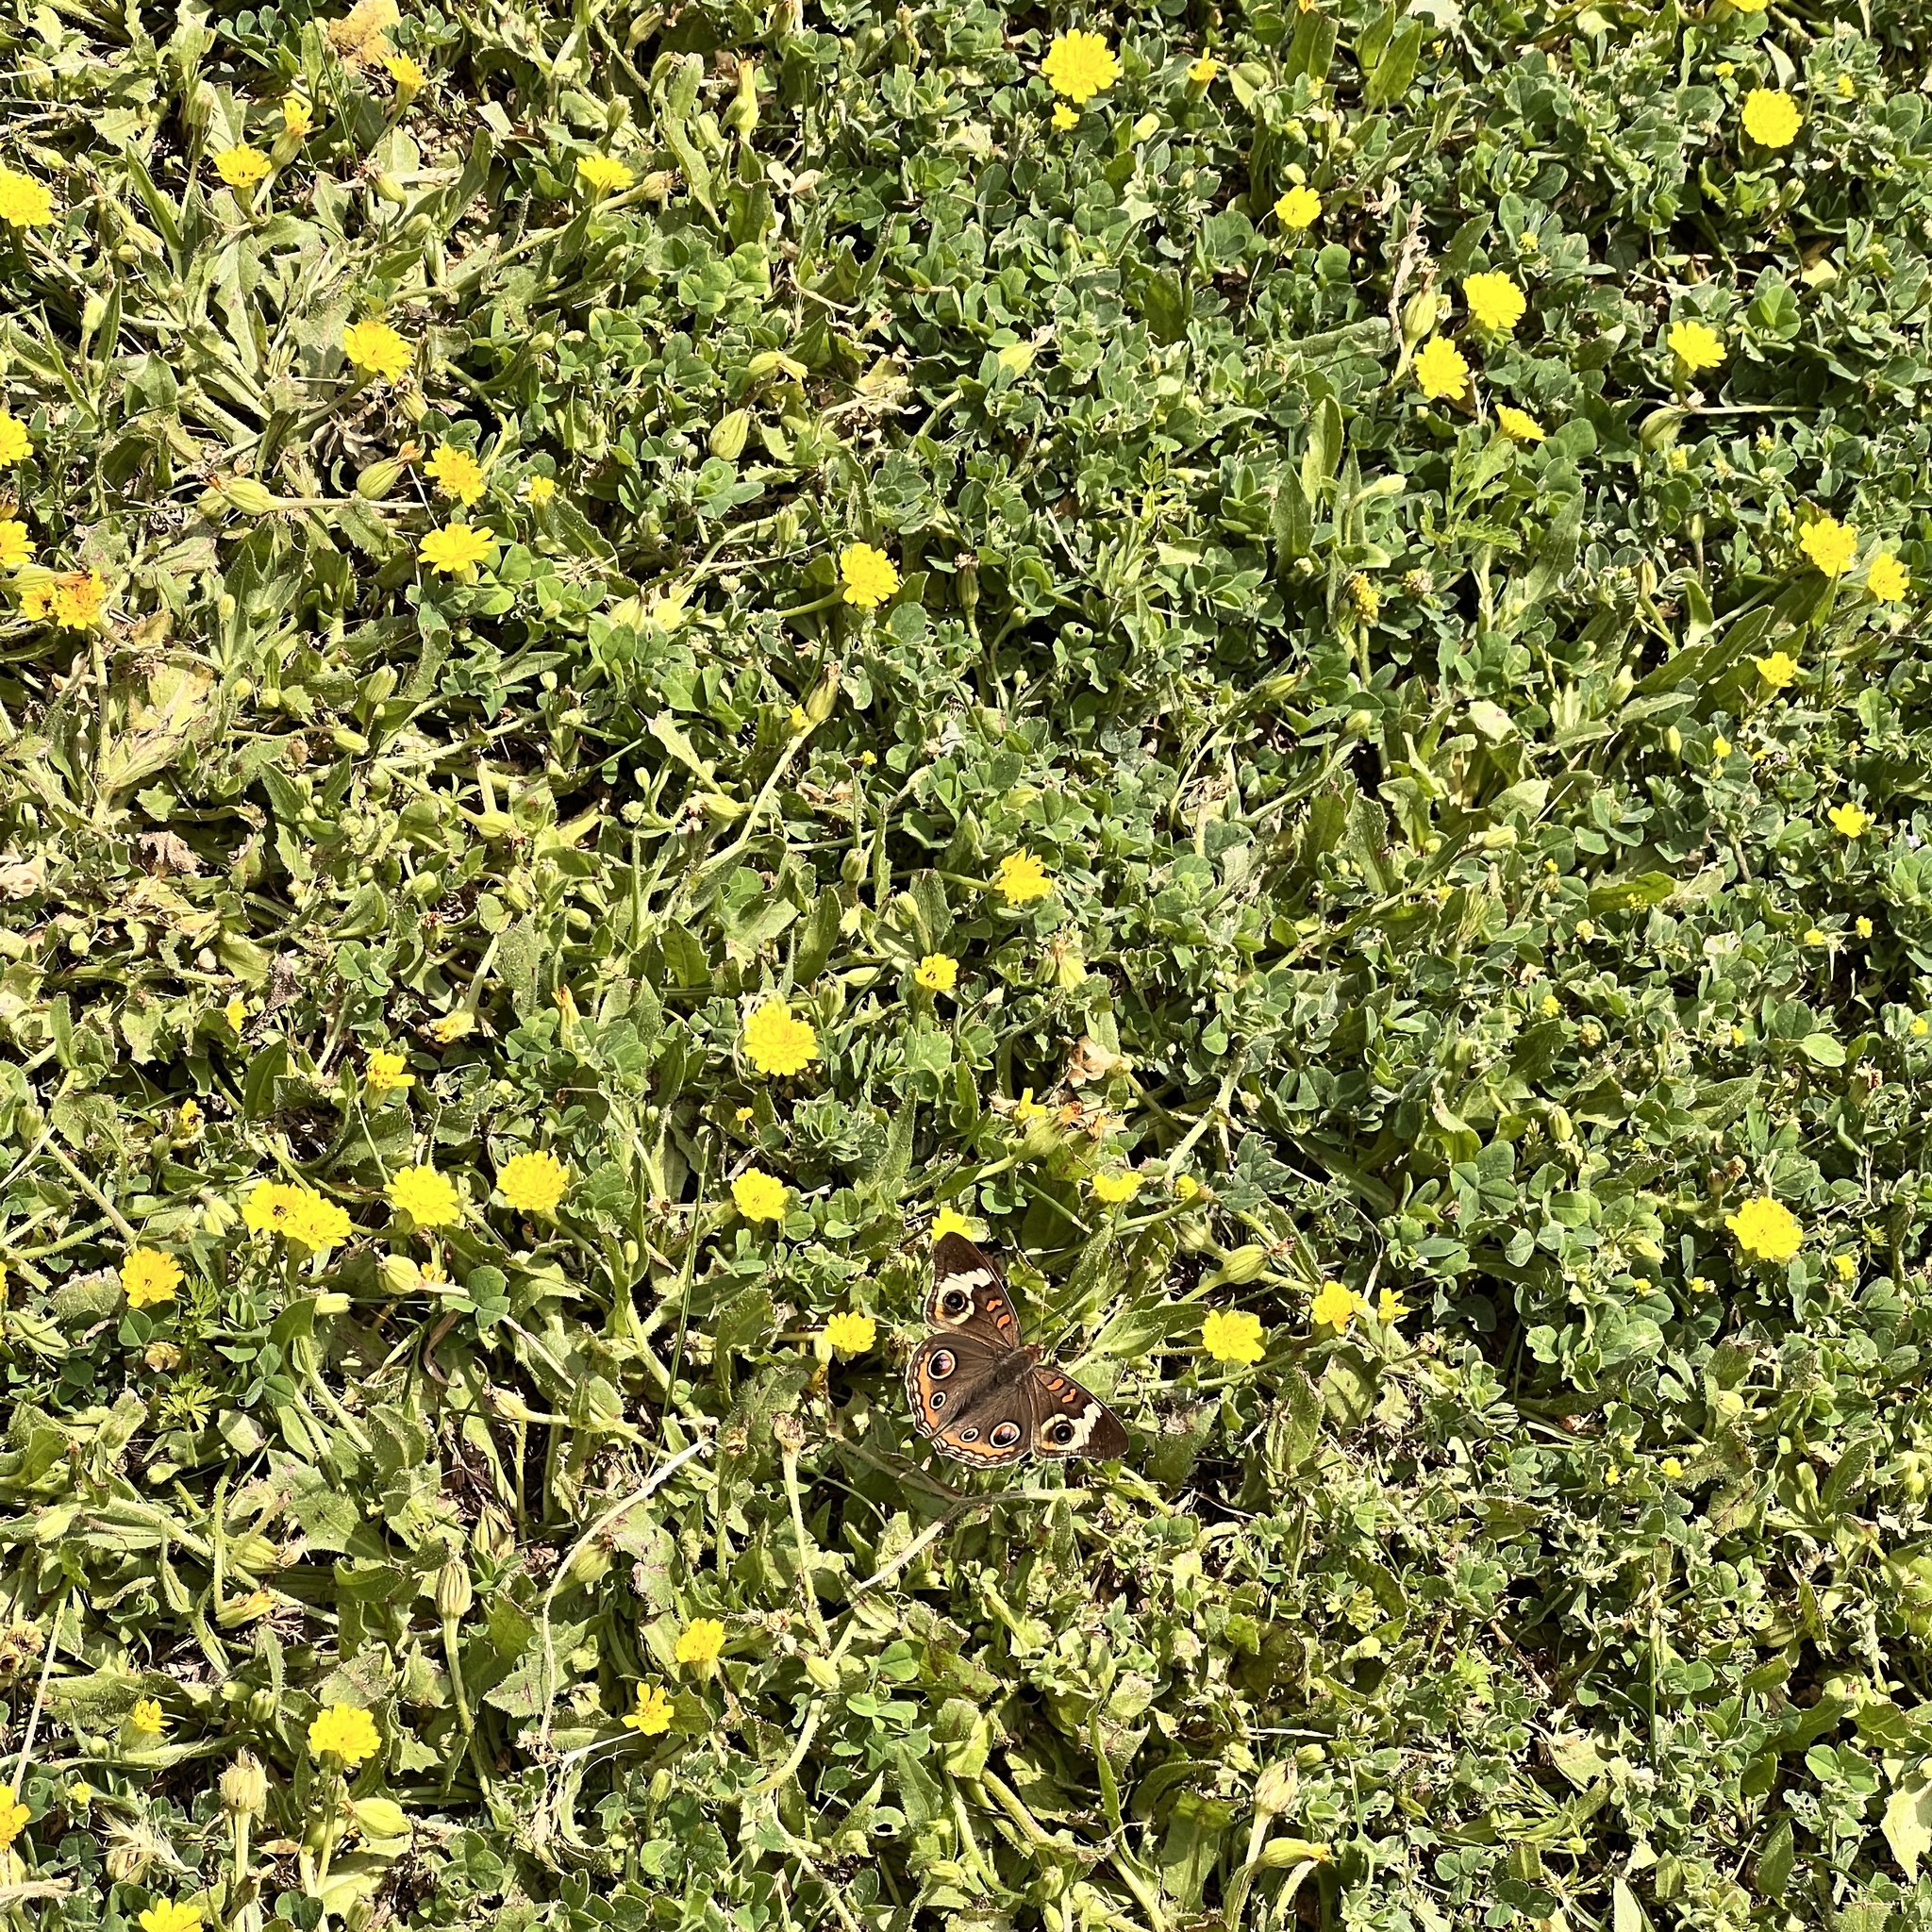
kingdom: Animalia
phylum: Arthropoda
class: Insecta
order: Lepidoptera
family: Nymphalidae
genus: Junonia
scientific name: Junonia coenia
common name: Common buckeye
